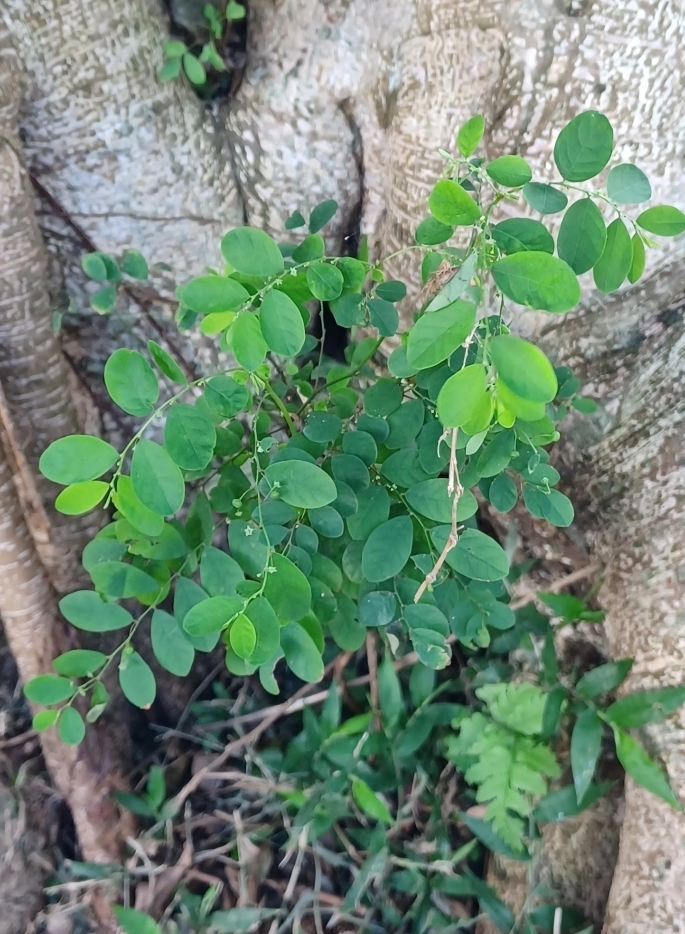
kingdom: Plantae
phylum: Tracheophyta
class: Magnoliopsida
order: Malpighiales
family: Phyllanthaceae
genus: Phyllanthus
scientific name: Phyllanthus tenellus
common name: Mascarene island leaf-flower
